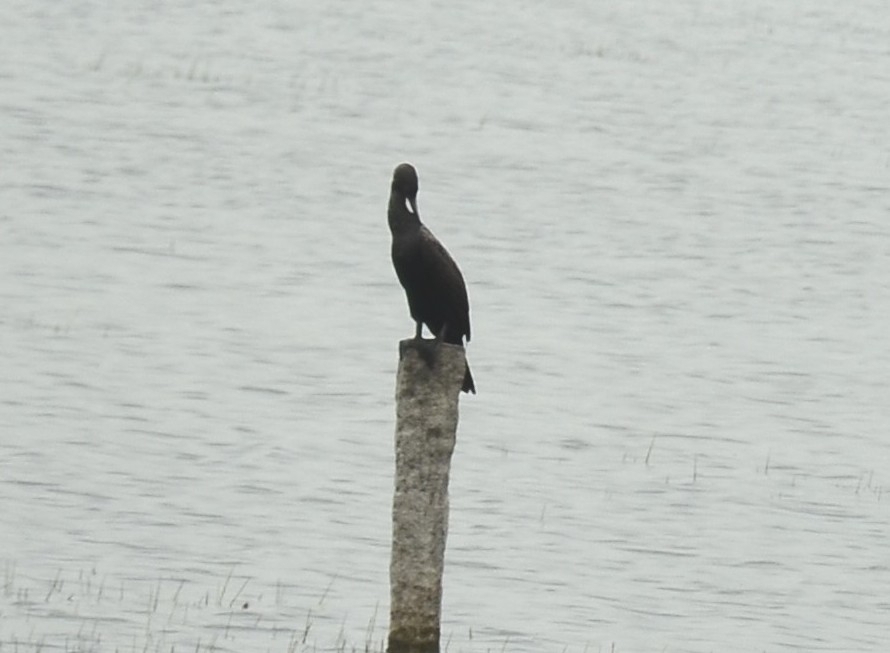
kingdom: Animalia
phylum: Chordata
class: Aves
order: Suliformes
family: Phalacrocoracidae
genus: Phalacrocorax
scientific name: Phalacrocorax fuscicollis
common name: Indian cormorant
